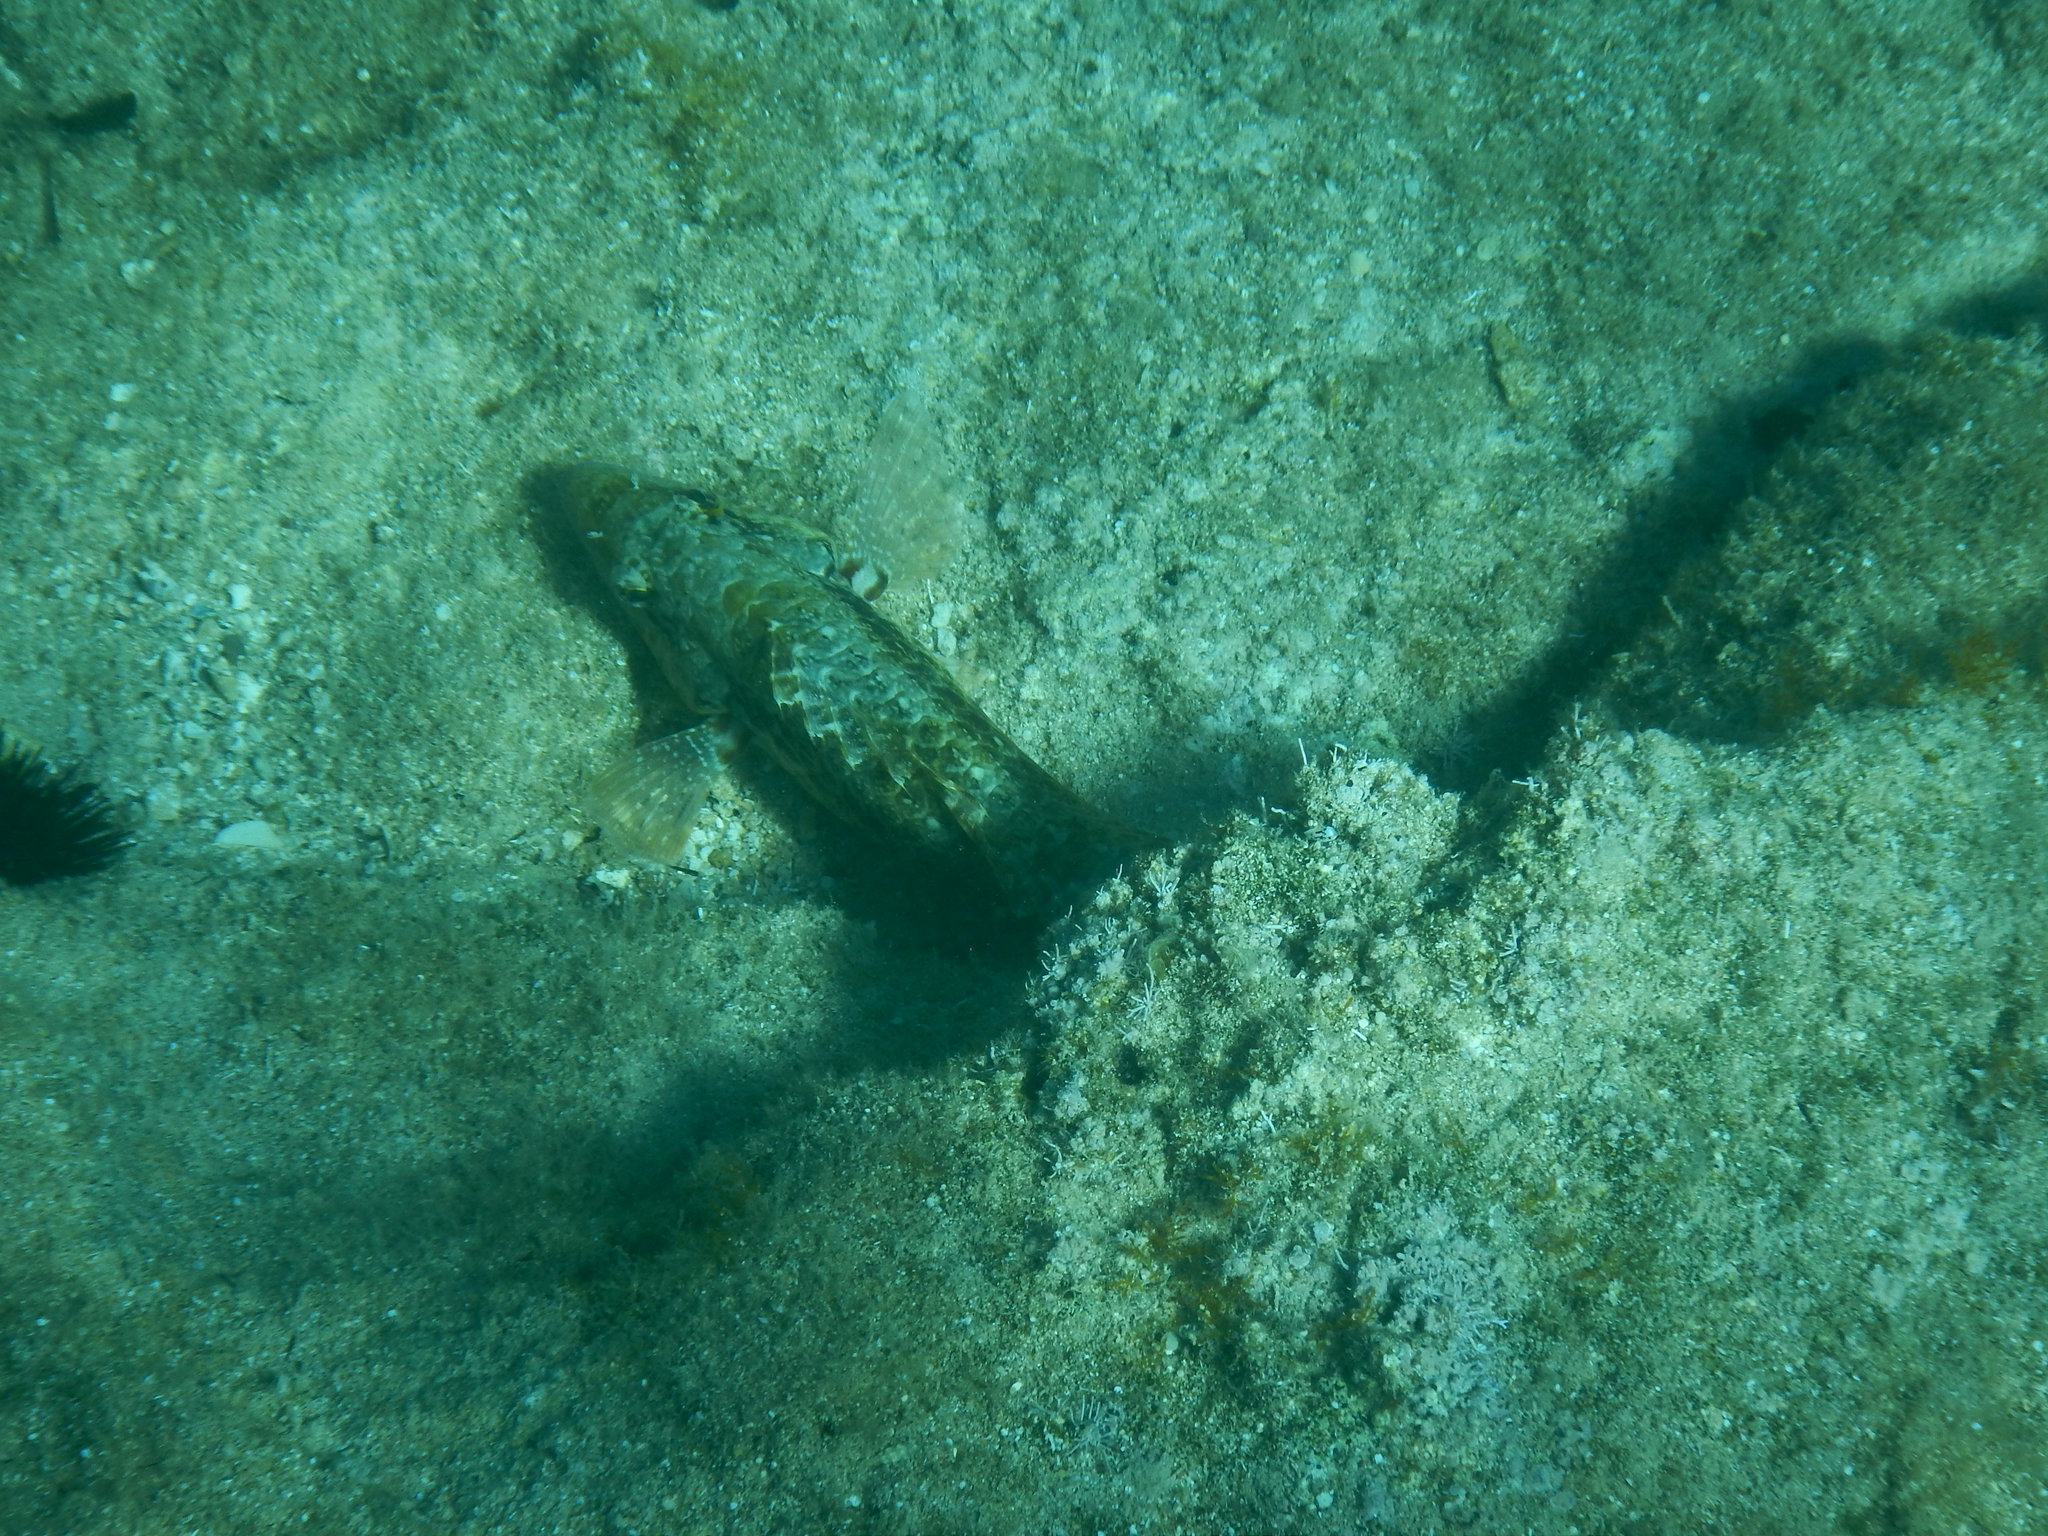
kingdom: Animalia
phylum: Chordata
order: Perciformes
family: Scaridae
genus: Sparisoma
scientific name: Sparisoma cretense
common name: Parrotfish
